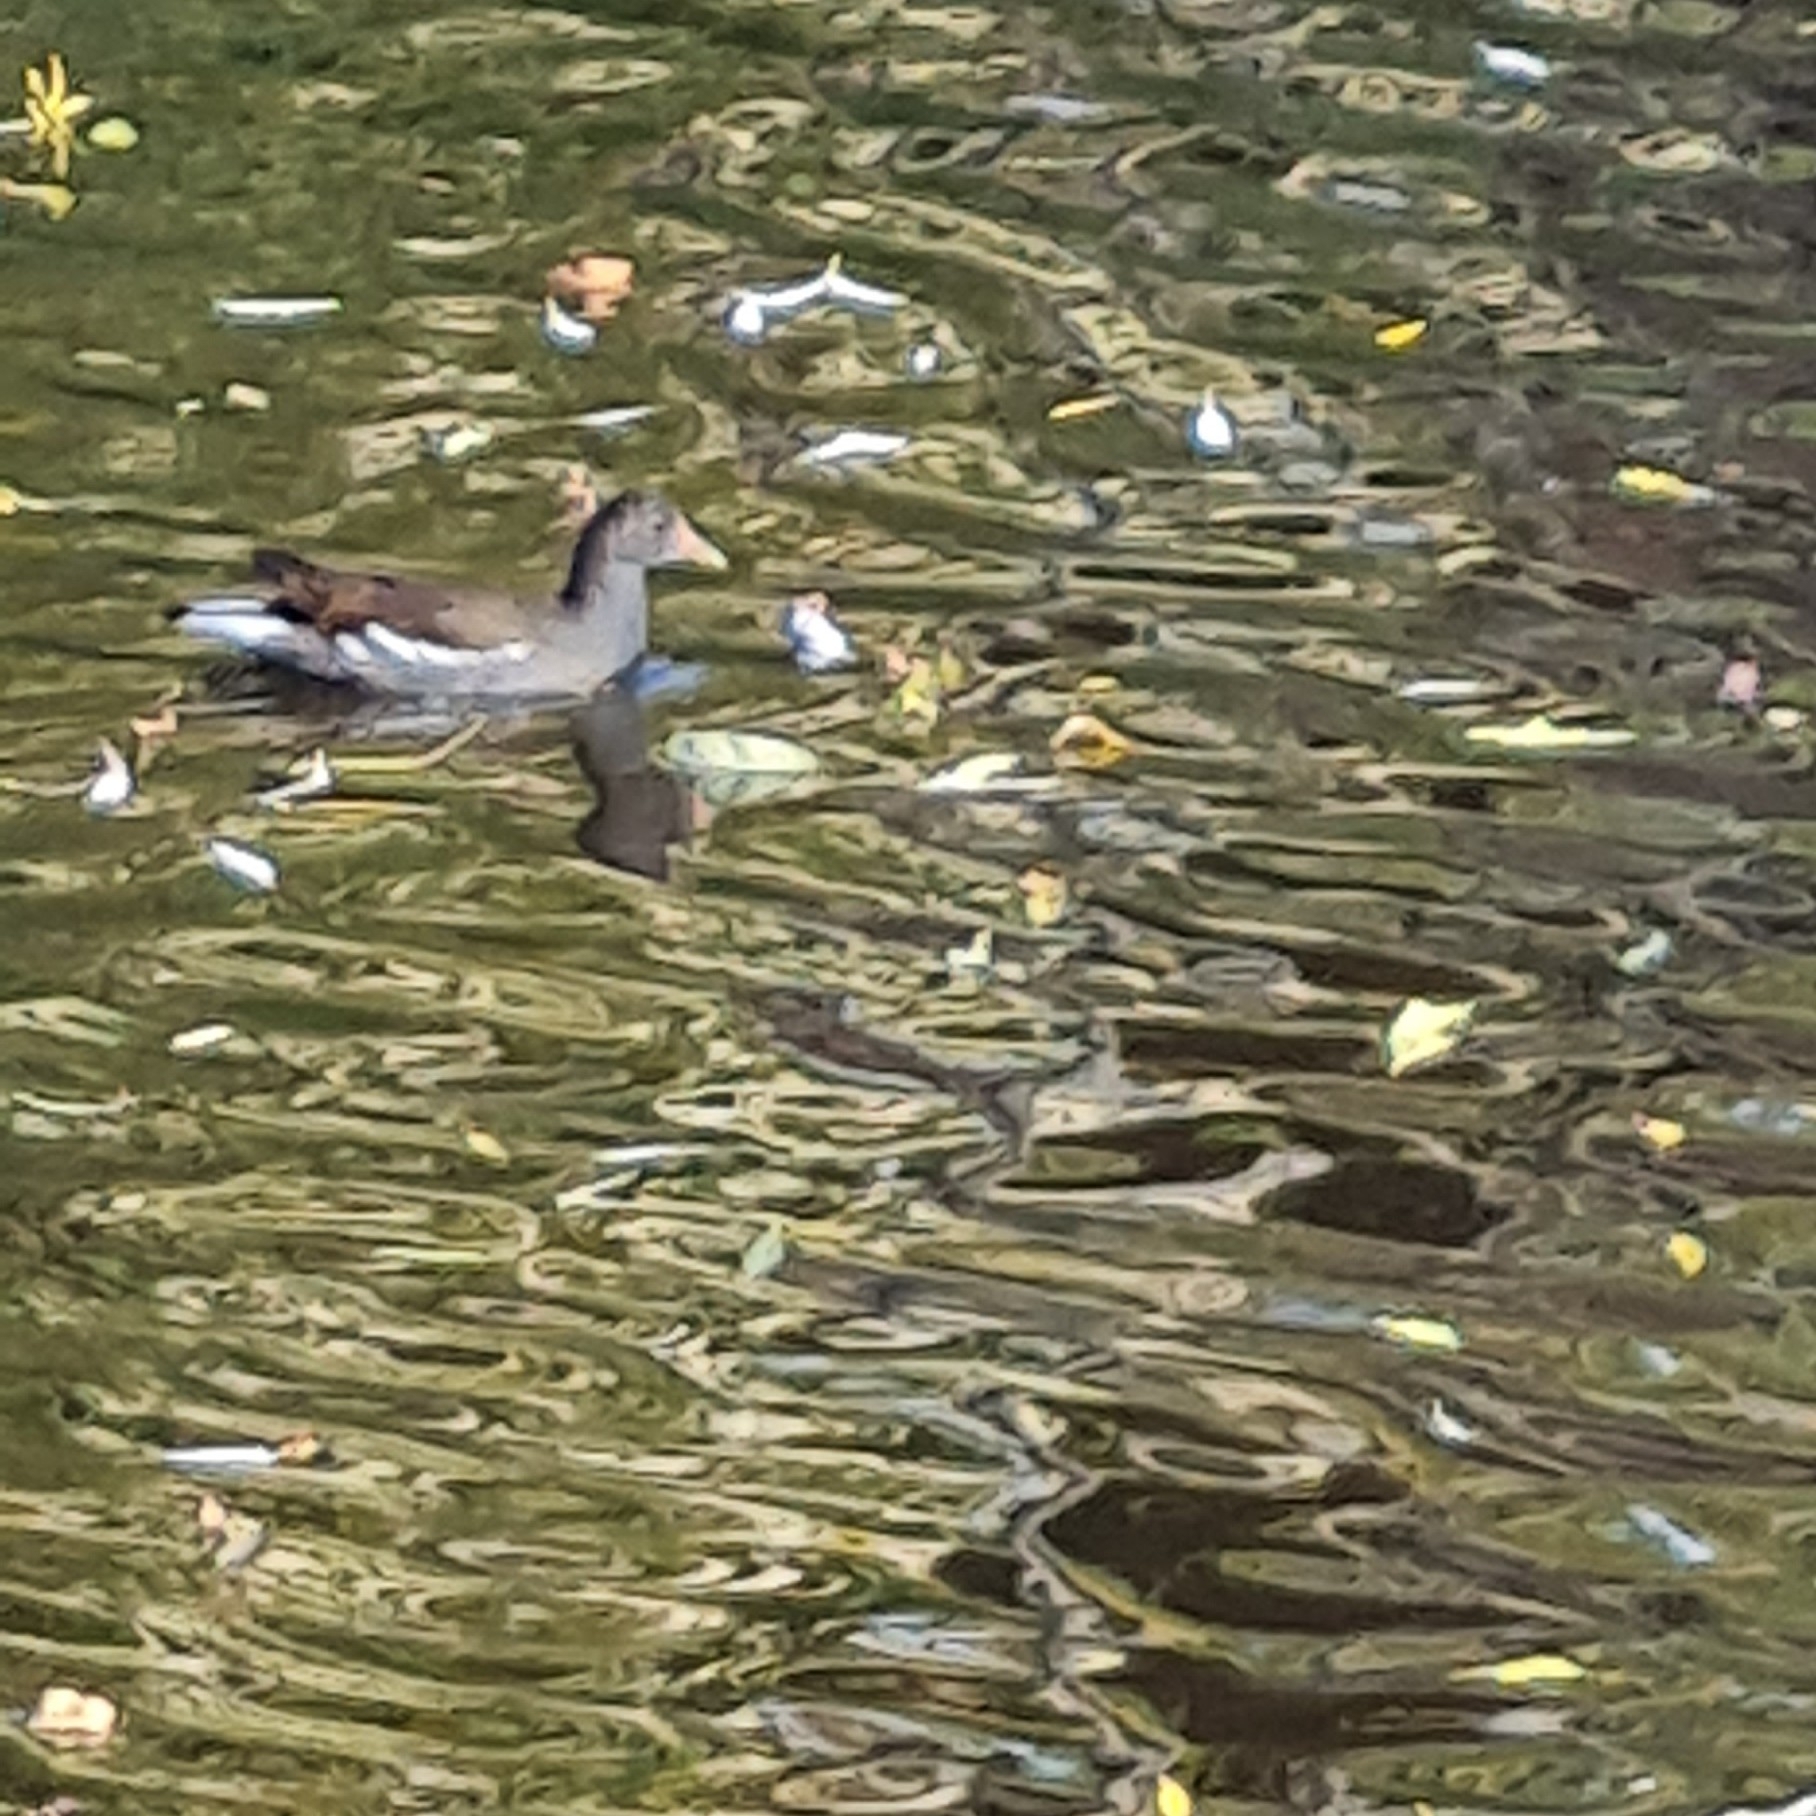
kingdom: Animalia
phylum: Chordata
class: Aves
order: Gruiformes
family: Rallidae
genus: Gallinula
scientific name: Gallinula chloropus
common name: Common moorhen
